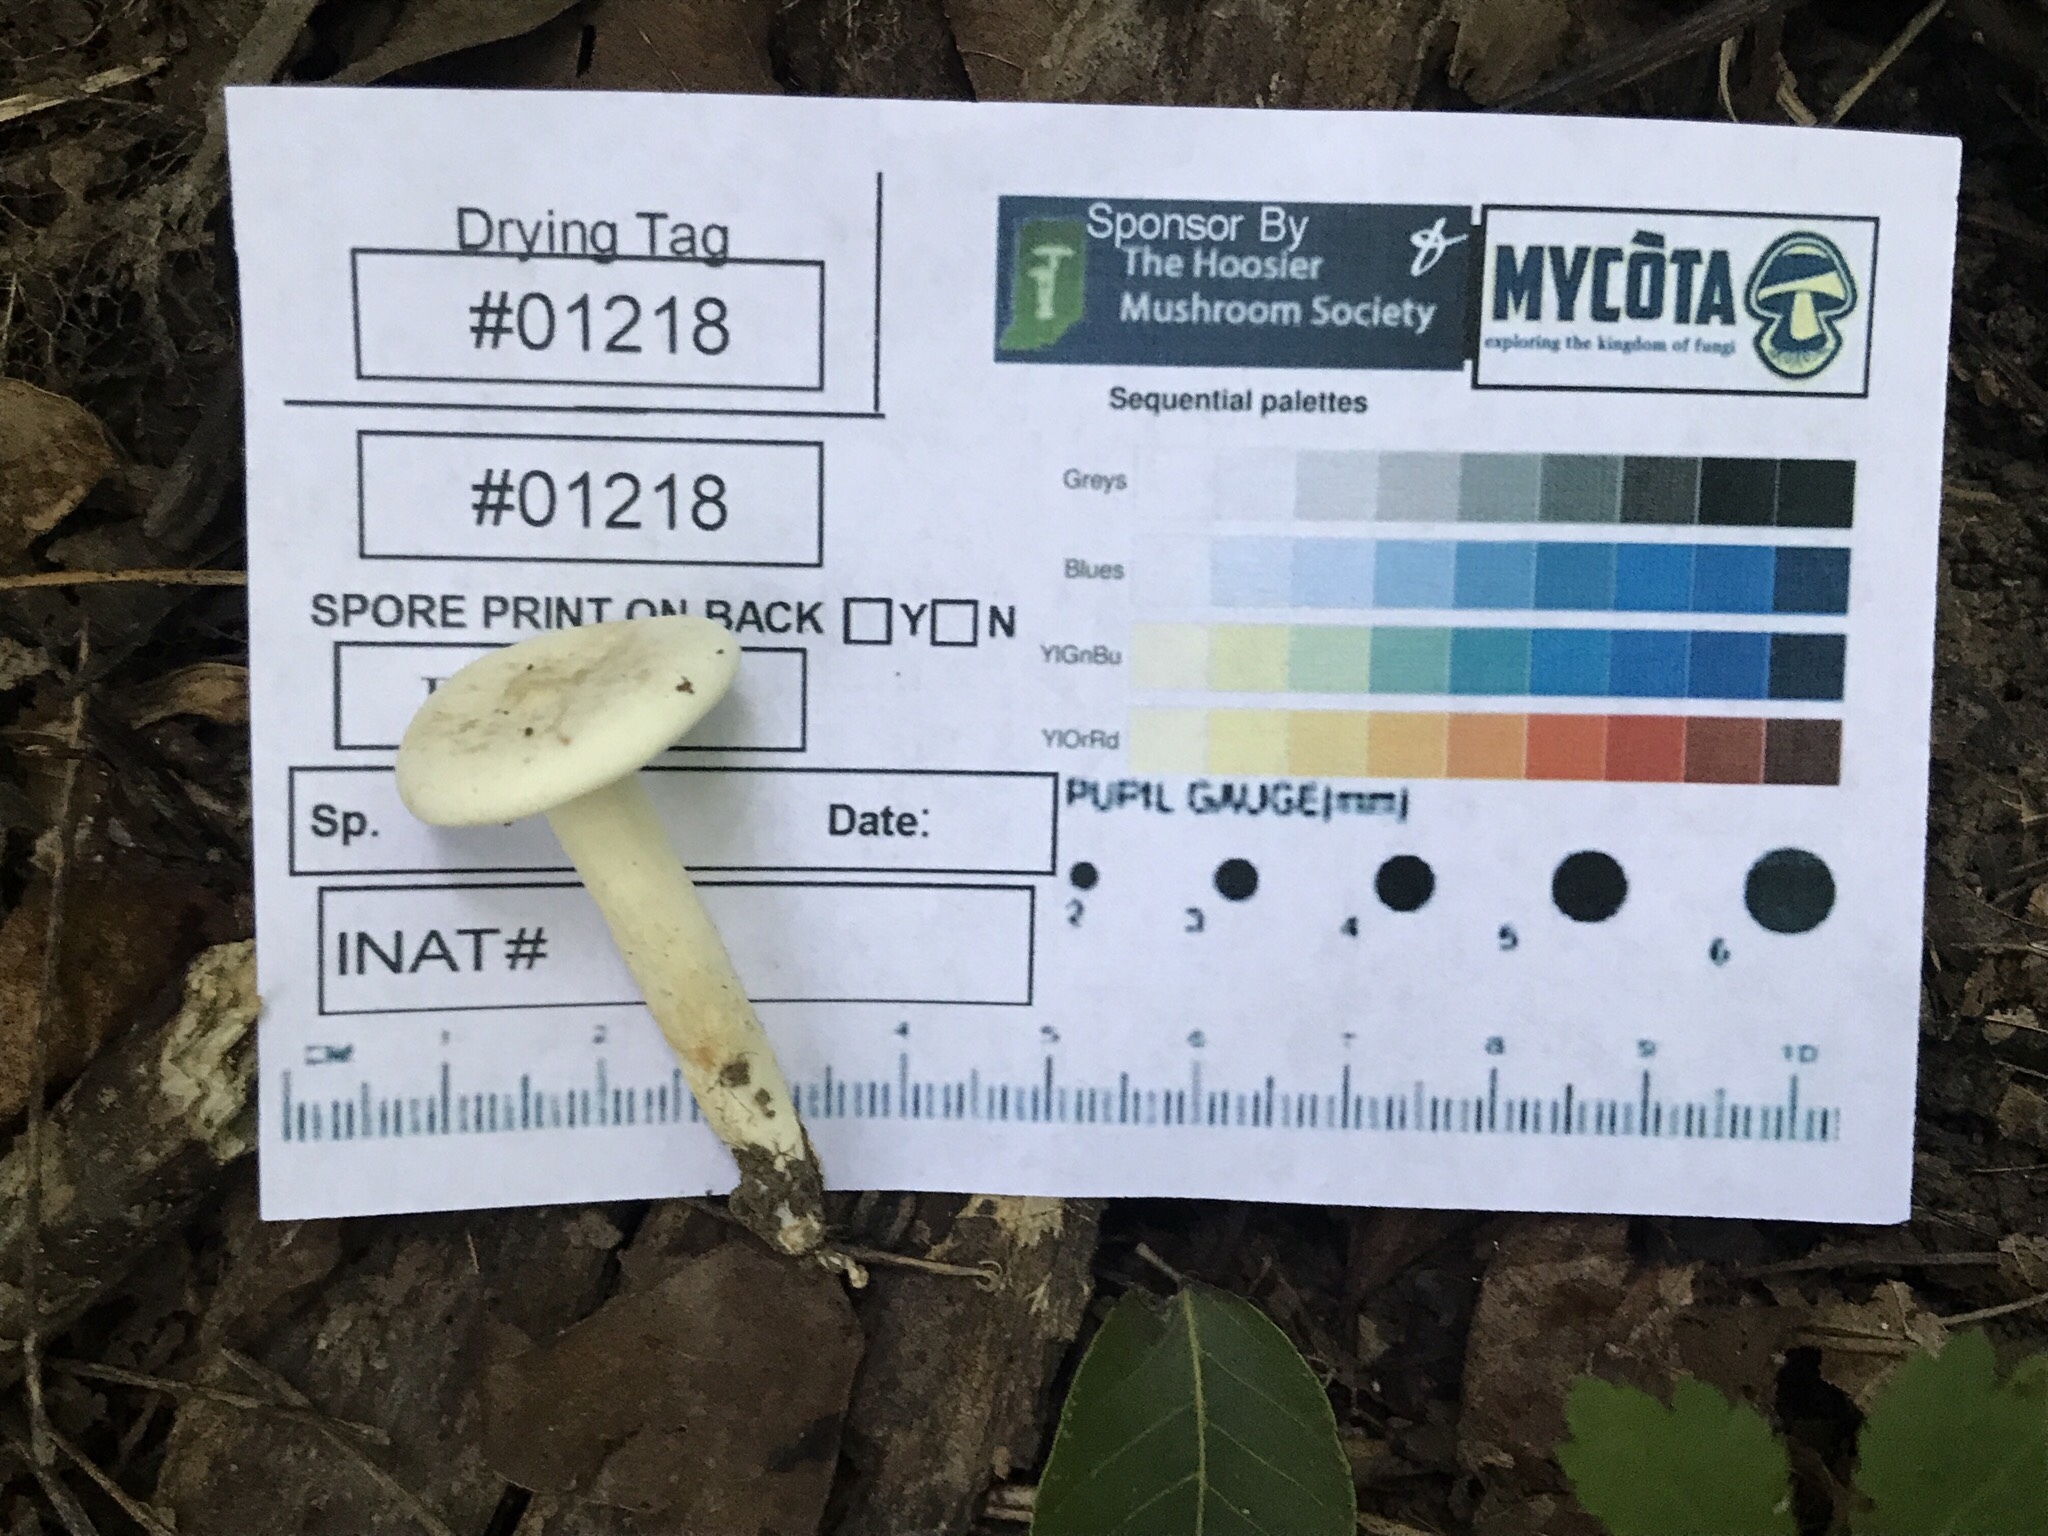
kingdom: Fungi
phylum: Basidiomycota
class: Agaricomycetes
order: Russulales
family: Russulaceae
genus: Lactarius
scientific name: Lactarius subvernalis
